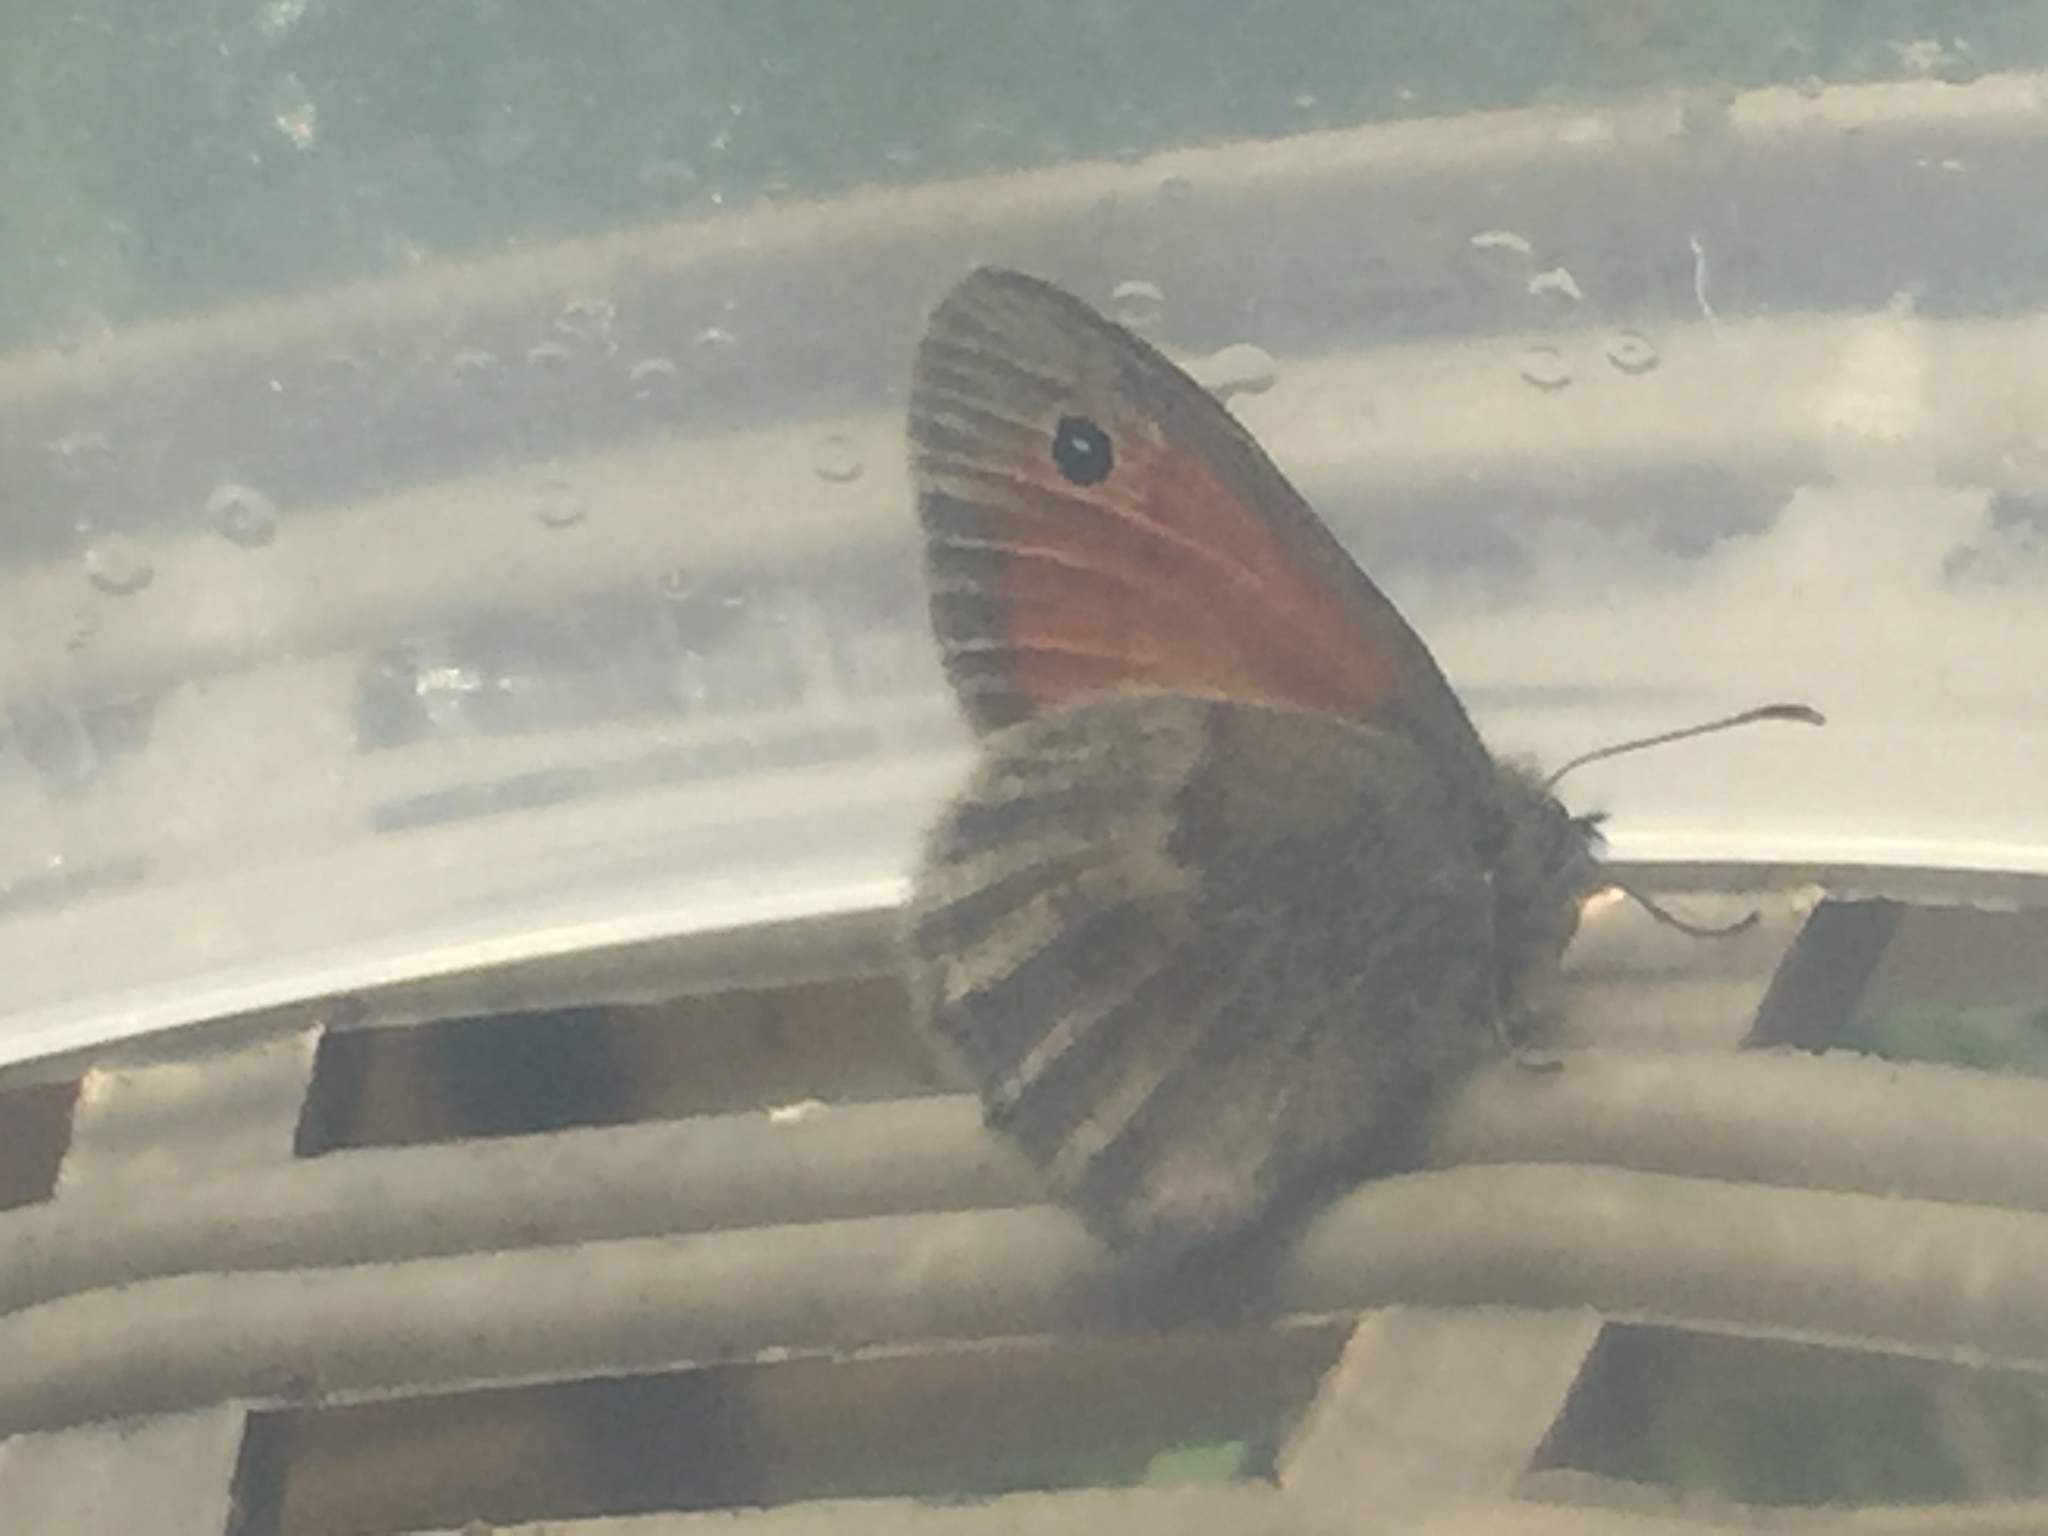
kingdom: Animalia
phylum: Arthropoda
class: Insecta
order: Lepidoptera
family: Nymphalidae
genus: Coenonympha
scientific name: Coenonympha pamphilus
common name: Small heath
